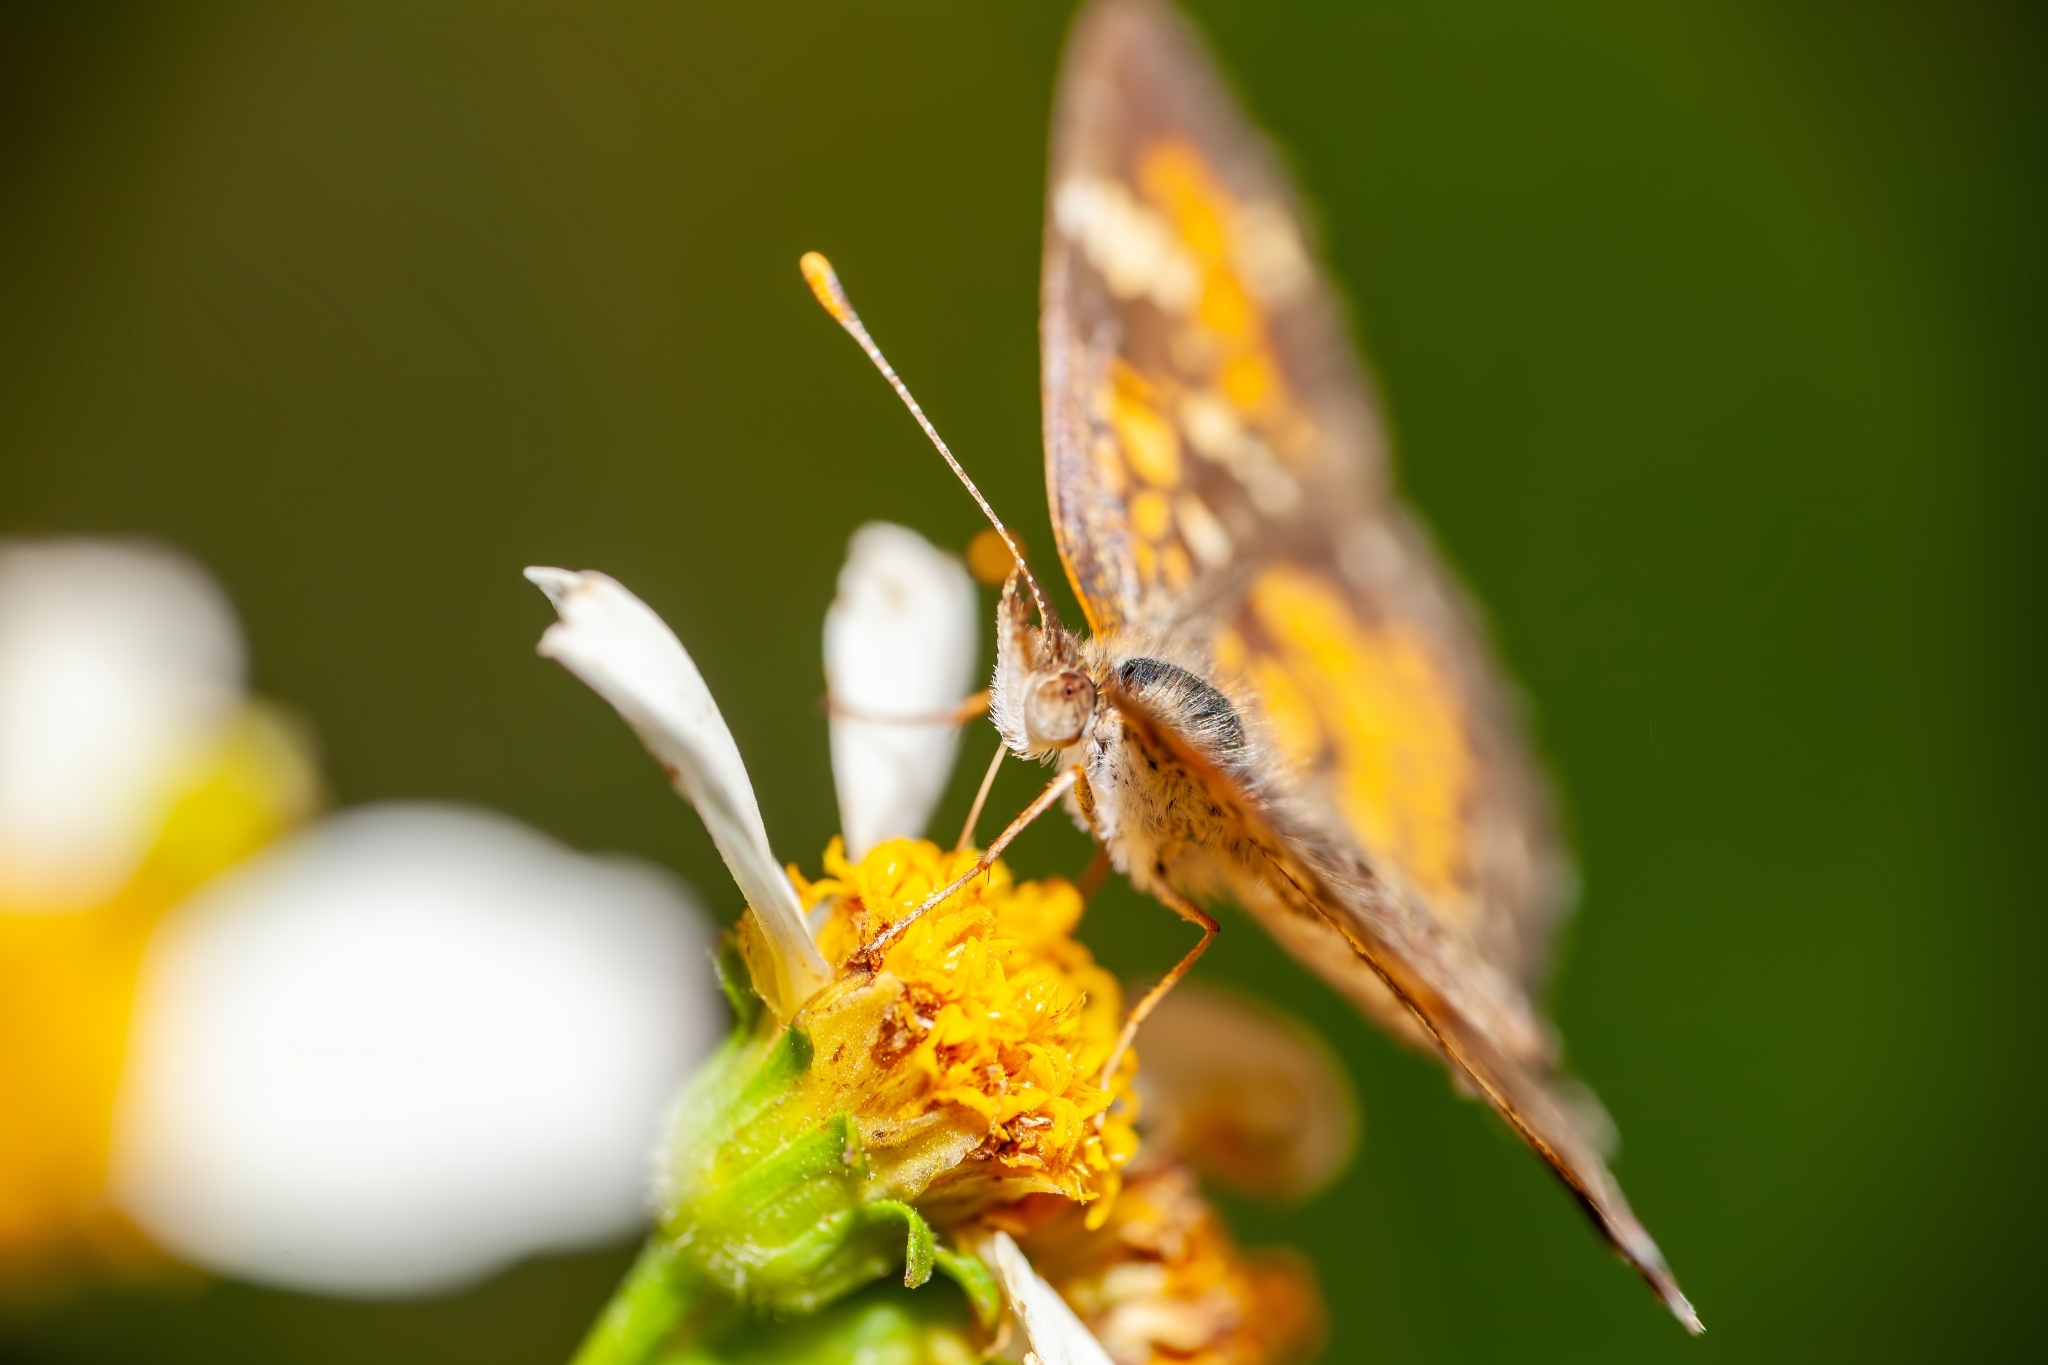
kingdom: Animalia
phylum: Arthropoda
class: Insecta
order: Lepidoptera
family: Nymphalidae
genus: Phyciodes
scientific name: Phyciodes phaon
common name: Phaon crescent
